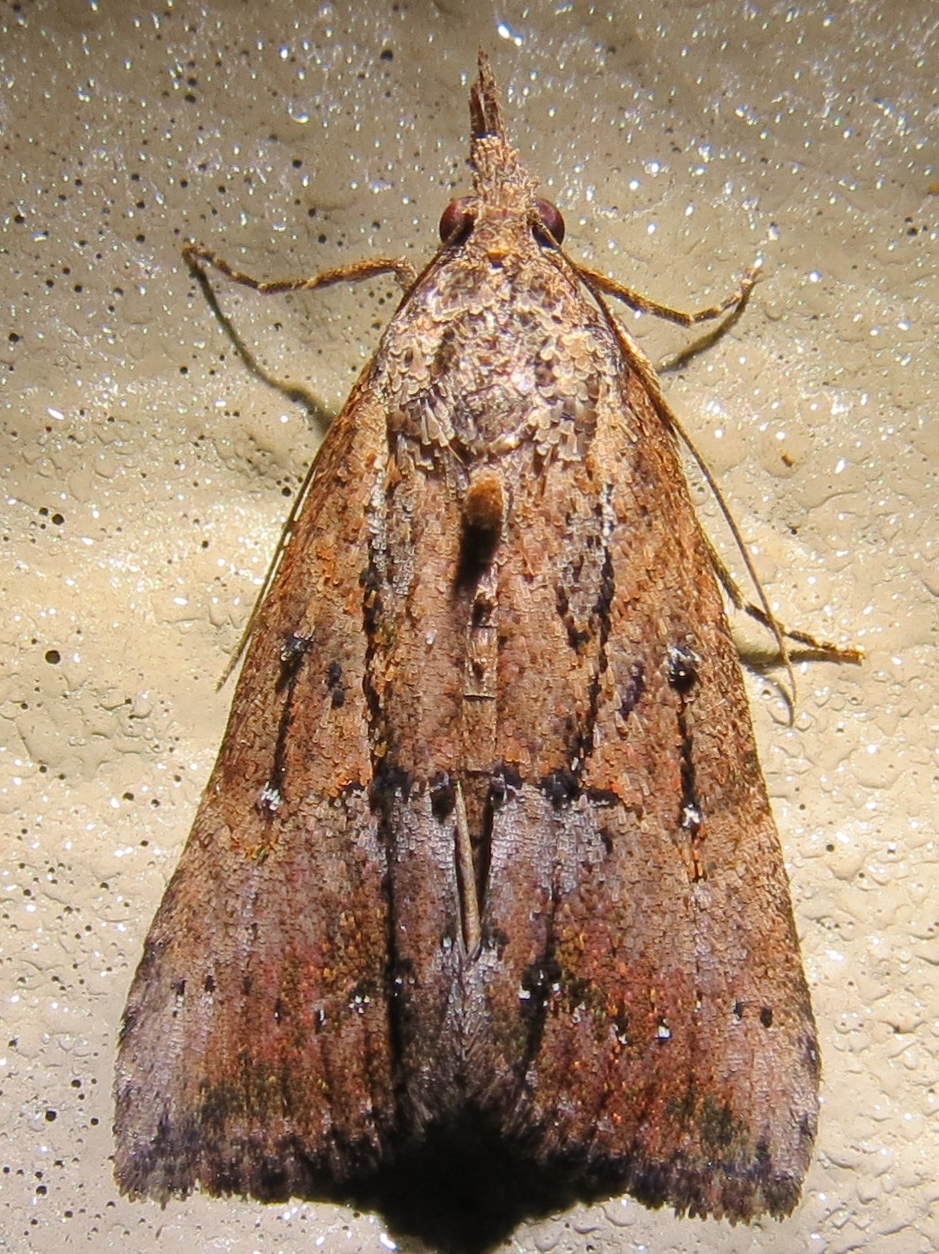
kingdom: Animalia
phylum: Arthropoda
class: Insecta
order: Lepidoptera
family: Erebidae
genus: Hypena
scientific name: Hypena scabra
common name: Green cloverworm
